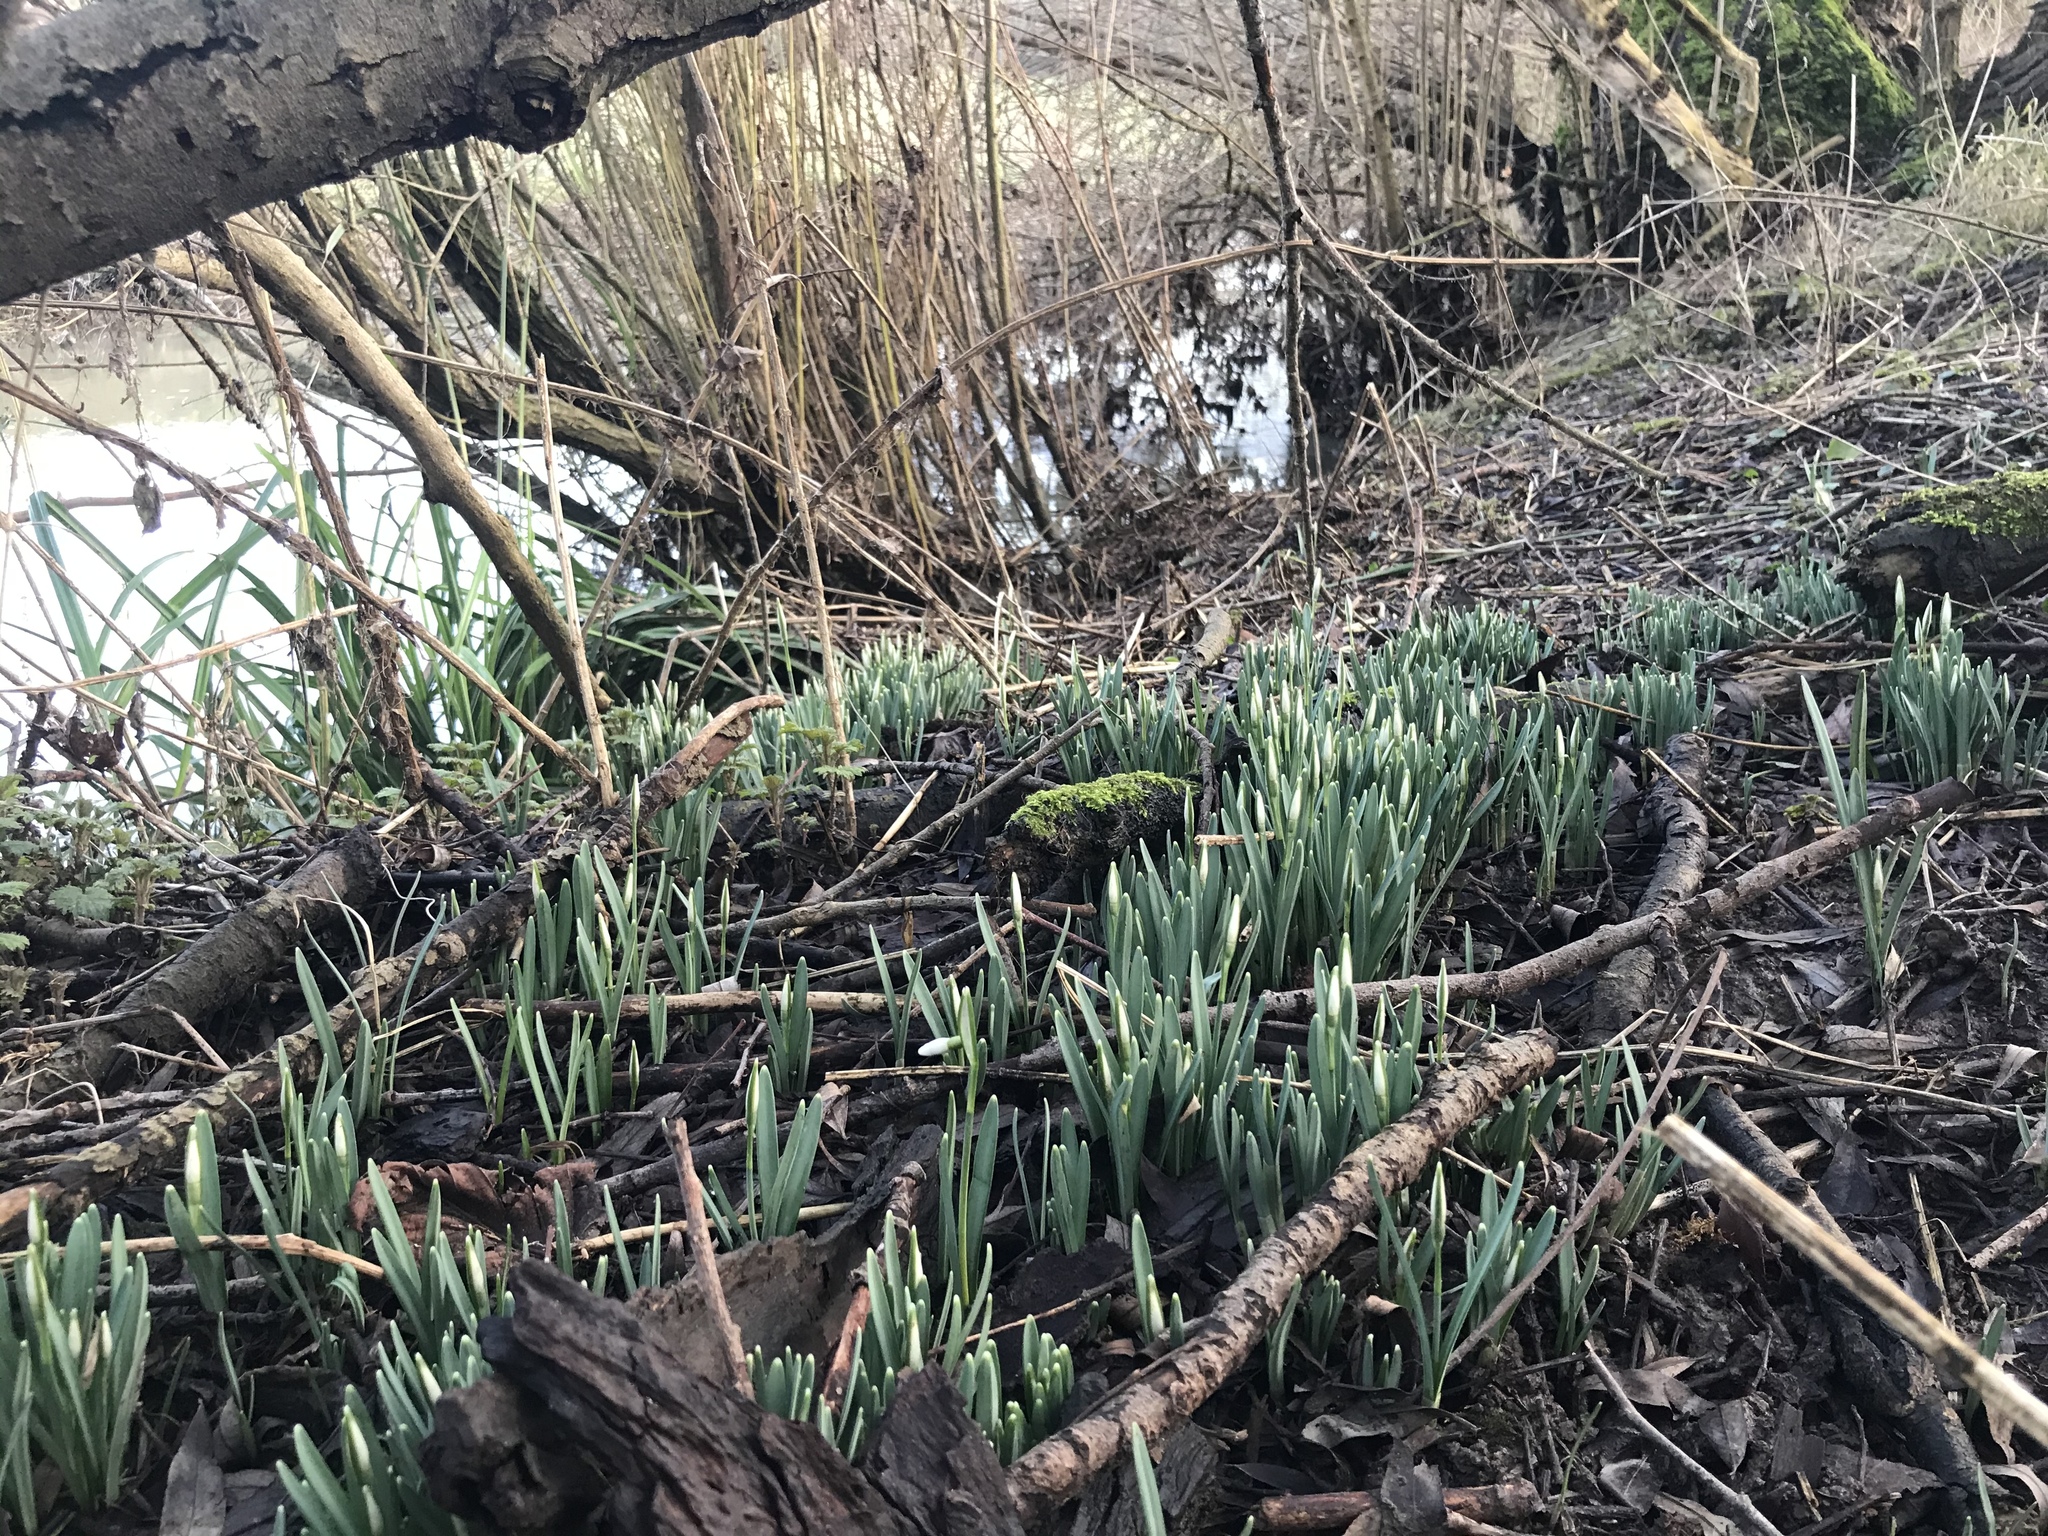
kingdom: Plantae
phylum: Tracheophyta
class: Liliopsida
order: Asparagales
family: Amaryllidaceae
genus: Galanthus
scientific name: Galanthus nivalis
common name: Snowdrop
